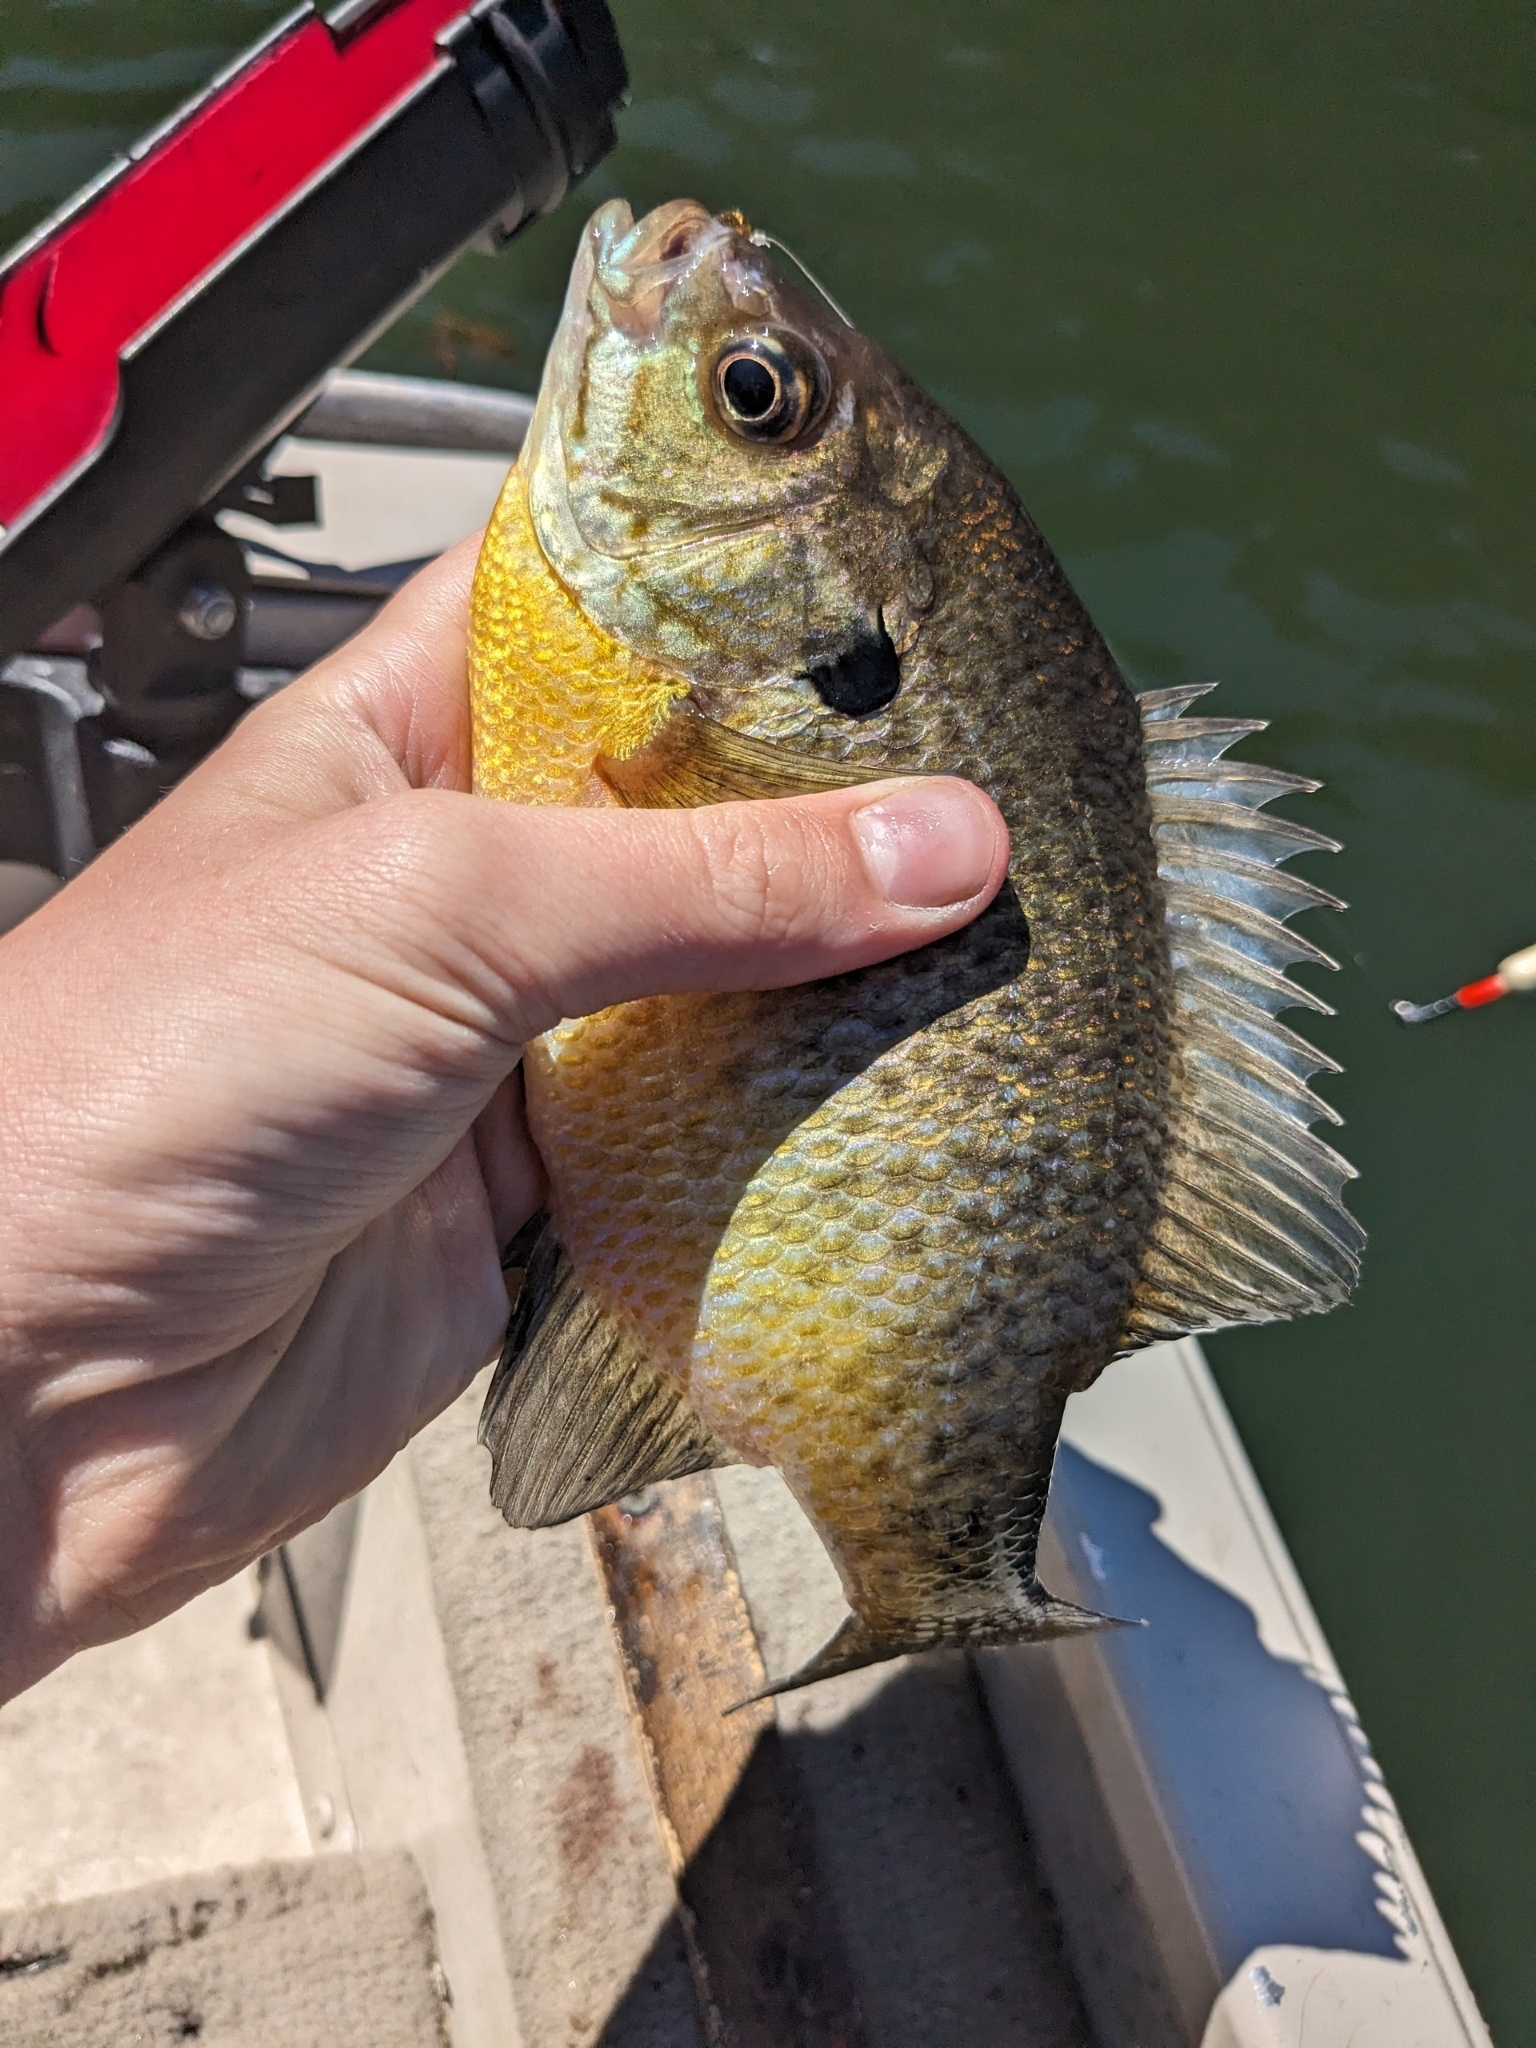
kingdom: Animalia
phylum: Chordata
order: Perciformes
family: Centrarchidae
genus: Lepomis
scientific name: Lepomis macrochirus
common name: Bluegill
